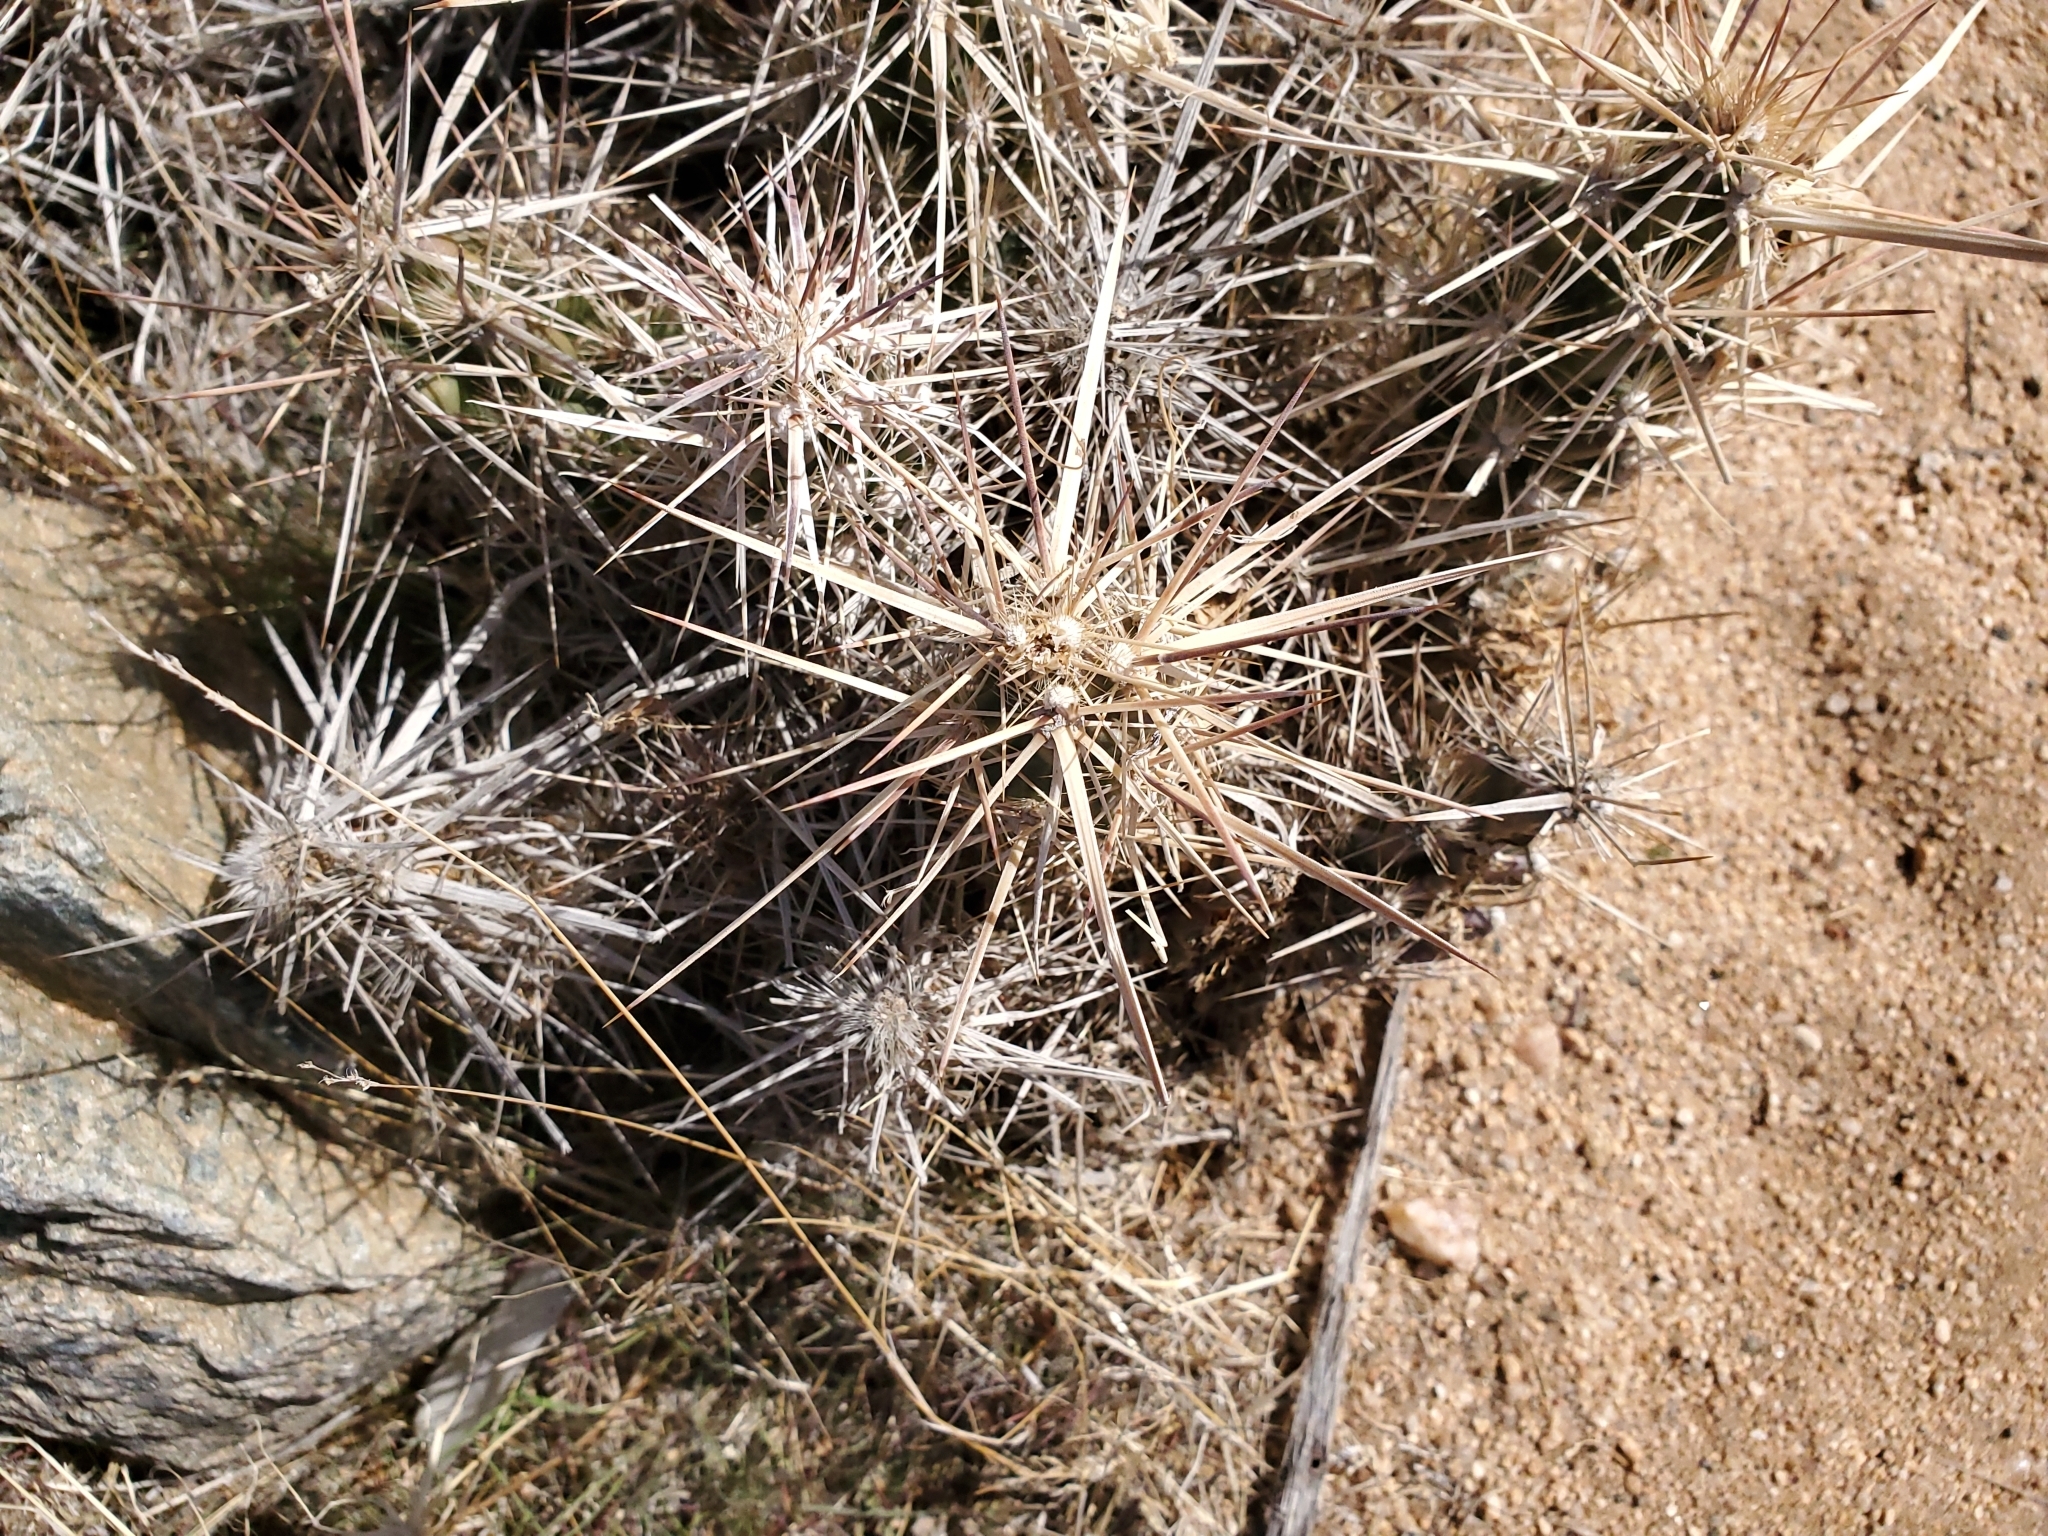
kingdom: Plantae
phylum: Tracheophyta
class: Magnoliopsida
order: Caryophyllales
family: Cactaceae
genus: Grusonia
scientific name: Grusonia parishiorum
